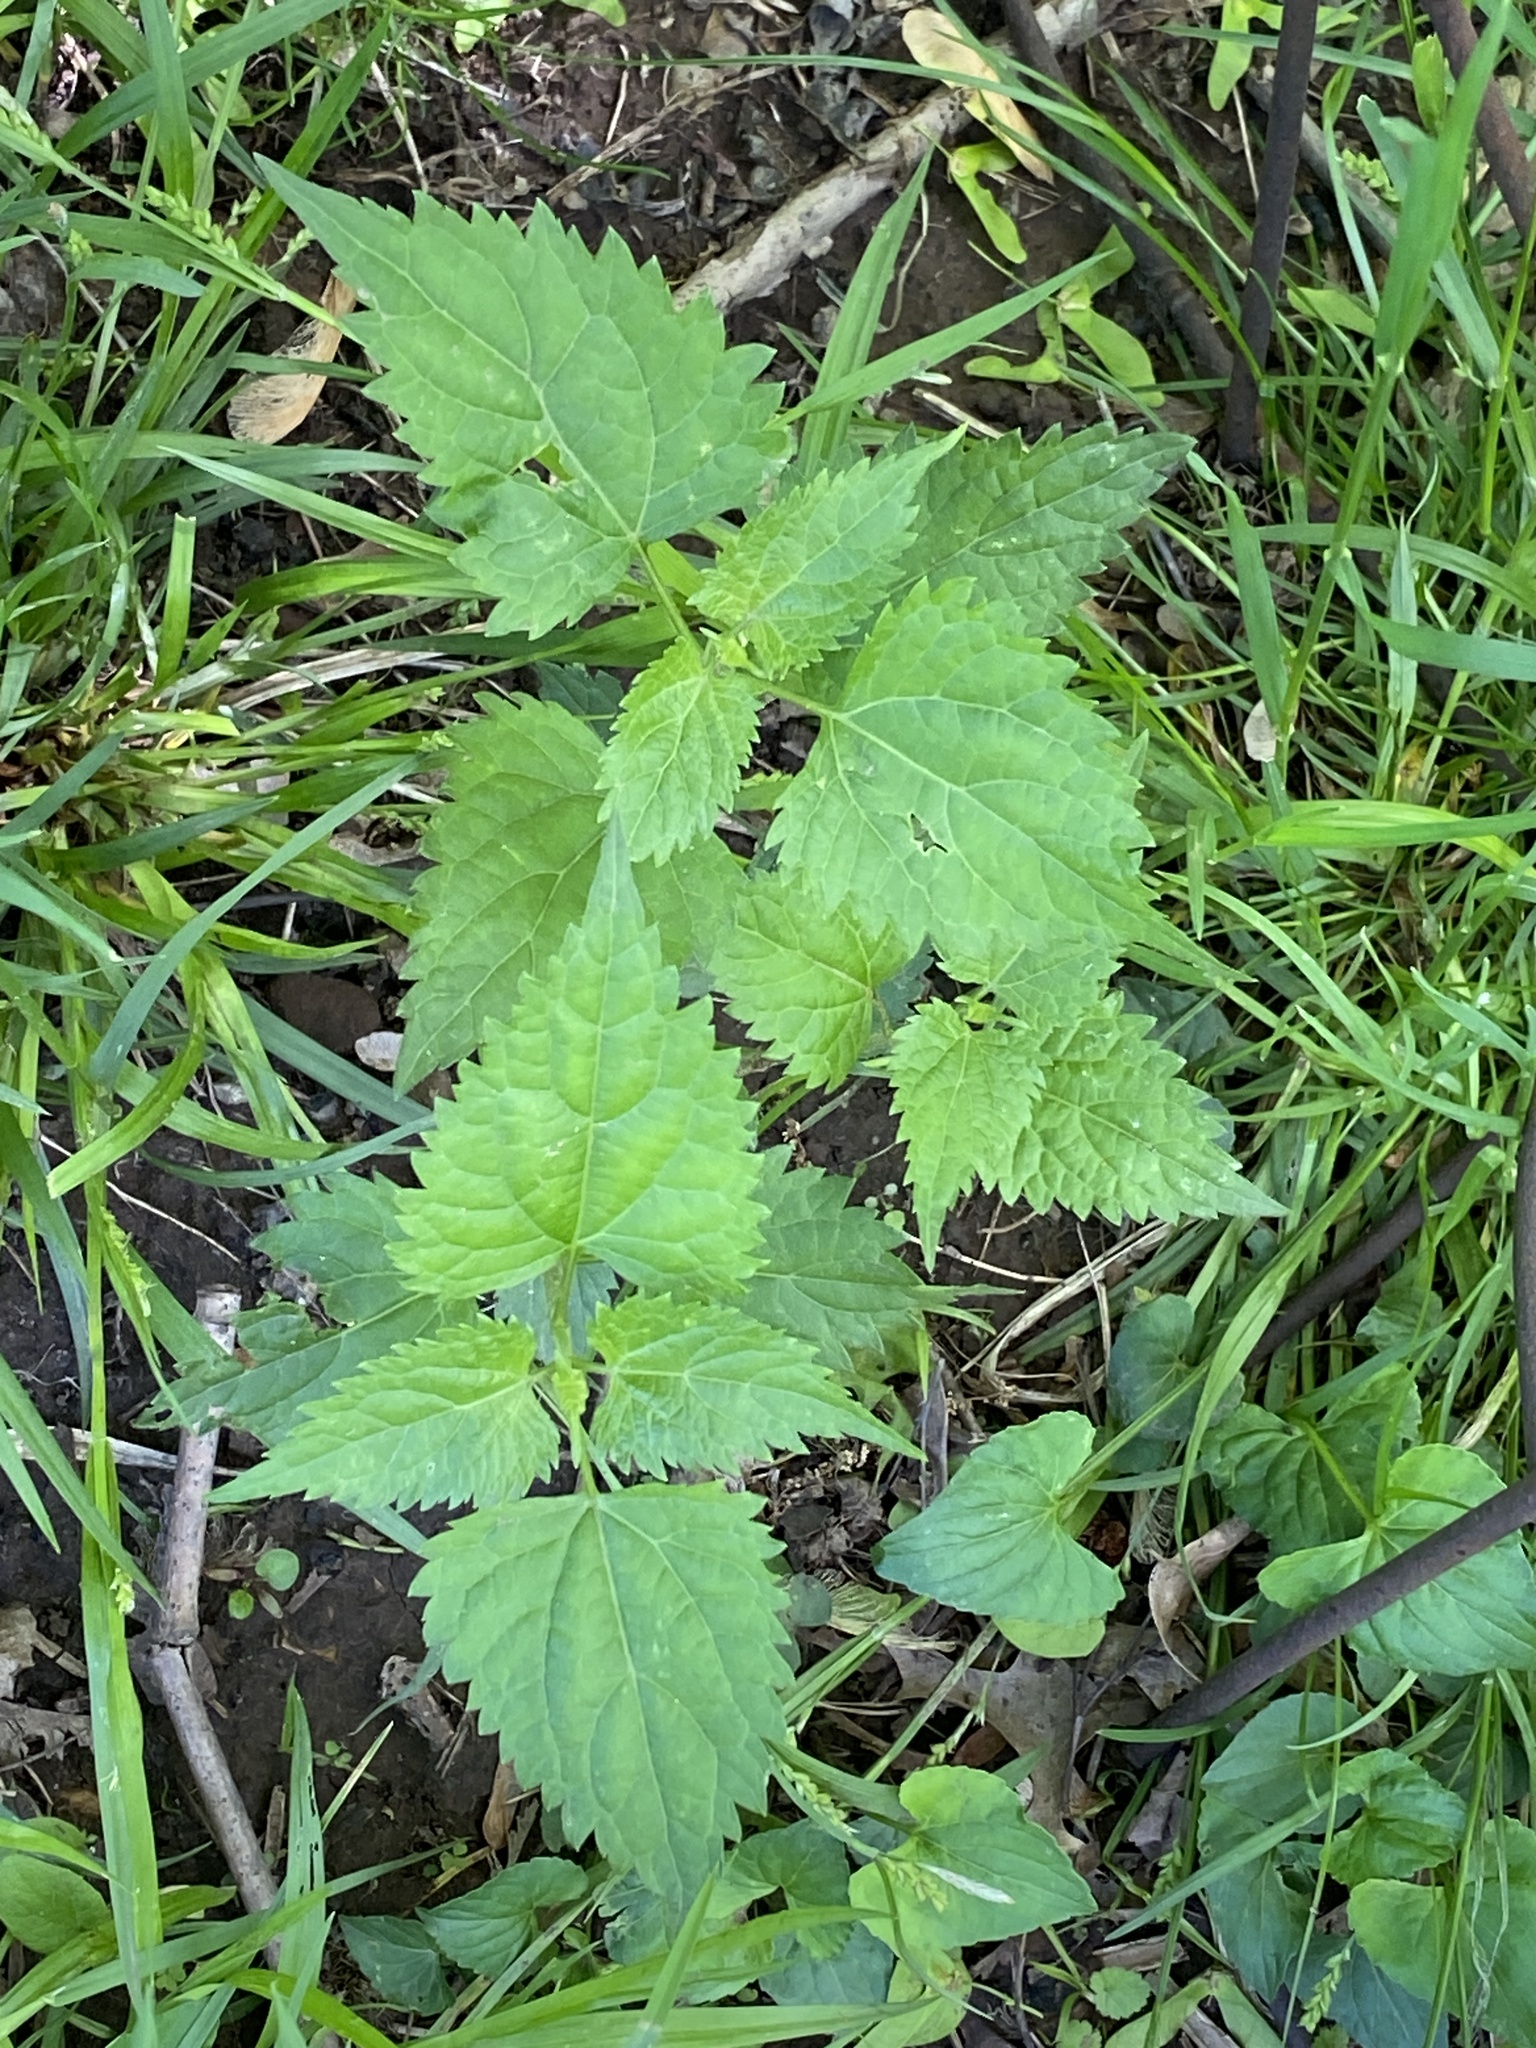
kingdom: Plantae
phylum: Tracheophyta
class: Magnoliopsida
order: Asterales
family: Asteraceae
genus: Ageratina
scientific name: Ageratina altissima
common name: White snakeroot
